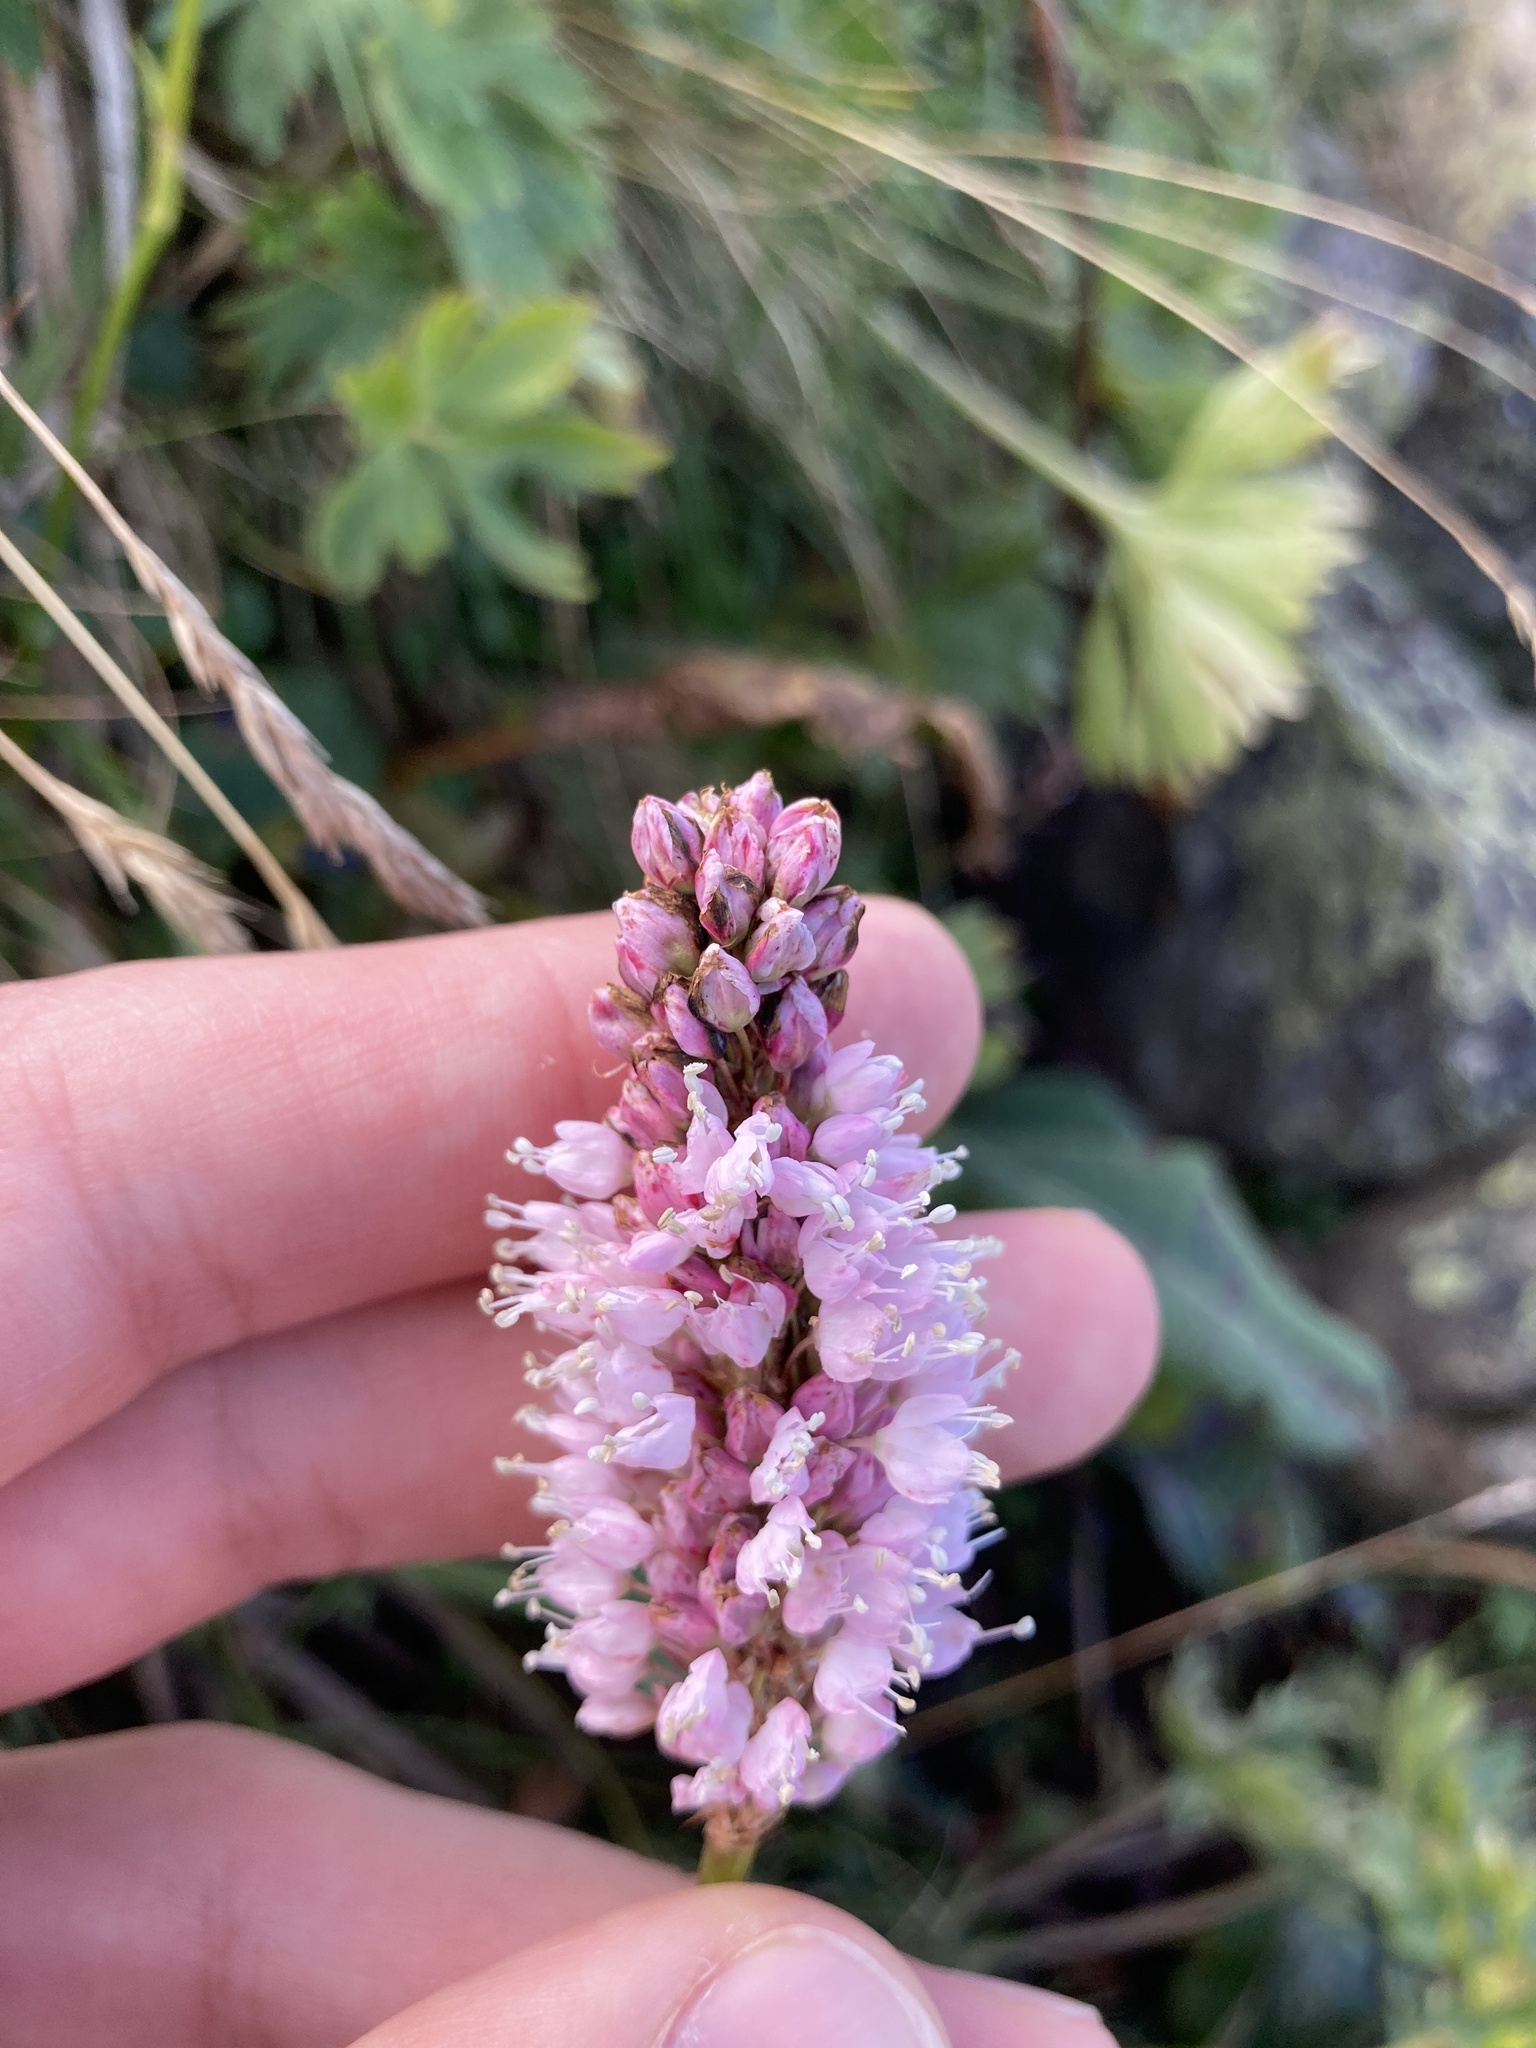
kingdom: Plantae
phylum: Tracheophyta
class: Magnoliopsida
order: Caryophyllales
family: Polygonaceae
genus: Bistorta
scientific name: Bistorta officinalis
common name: Common bistort
